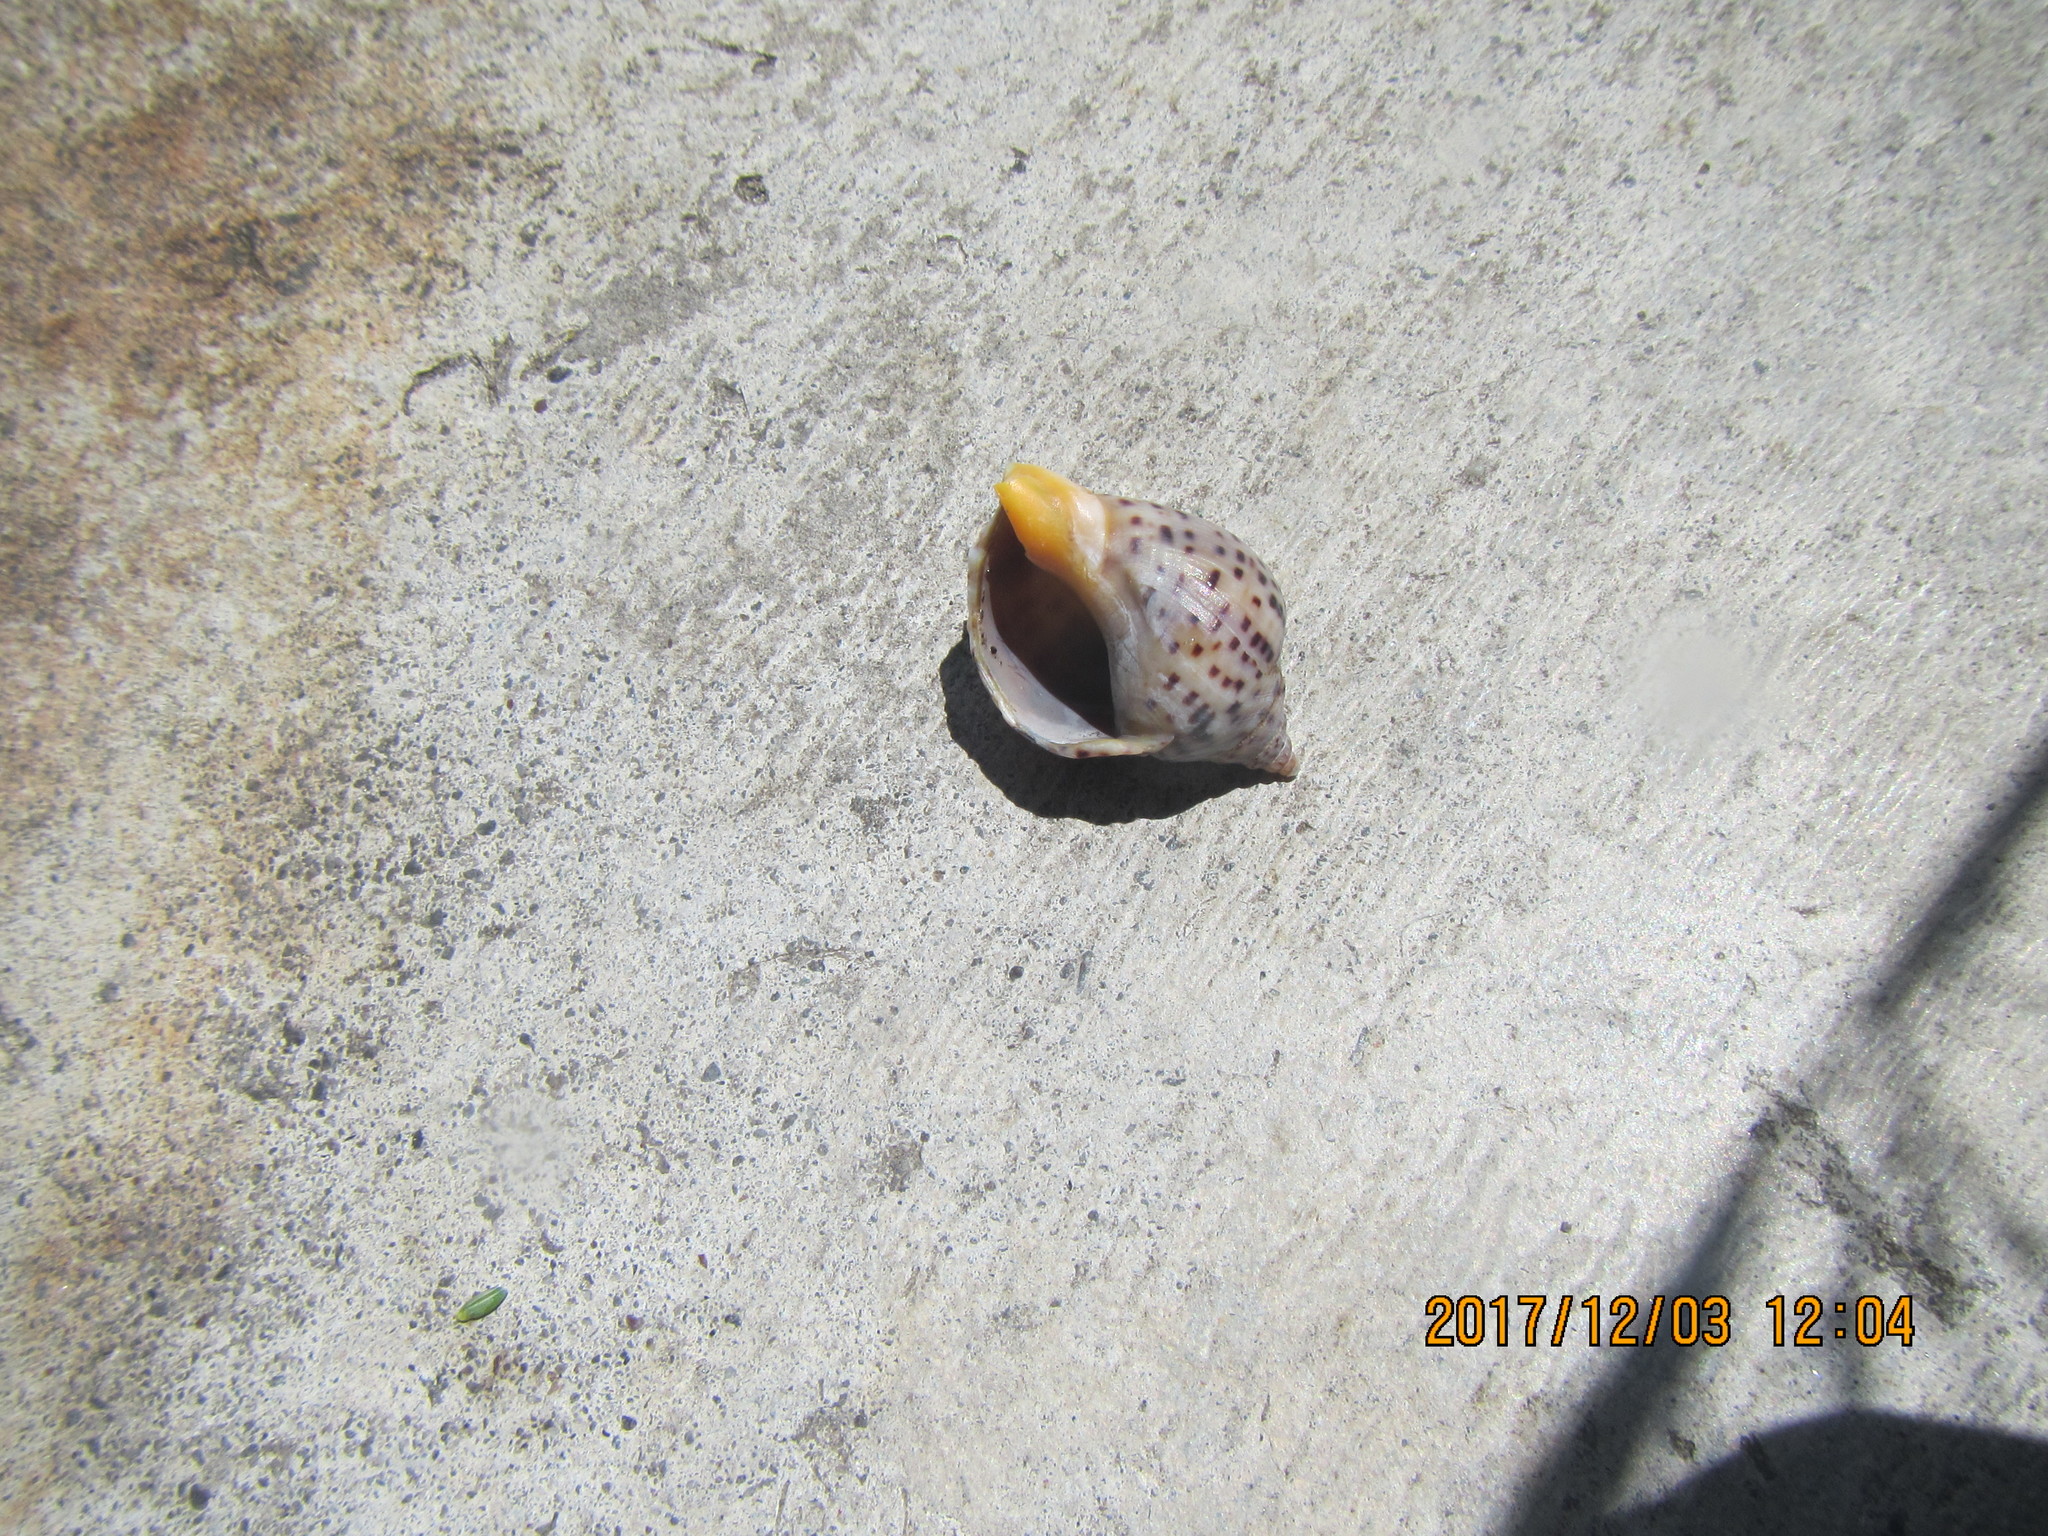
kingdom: Animalia
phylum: Mollusca
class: Gastropoda
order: Neogastropoda
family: Cominellidae
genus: Cominella
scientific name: Cominella adspersa
